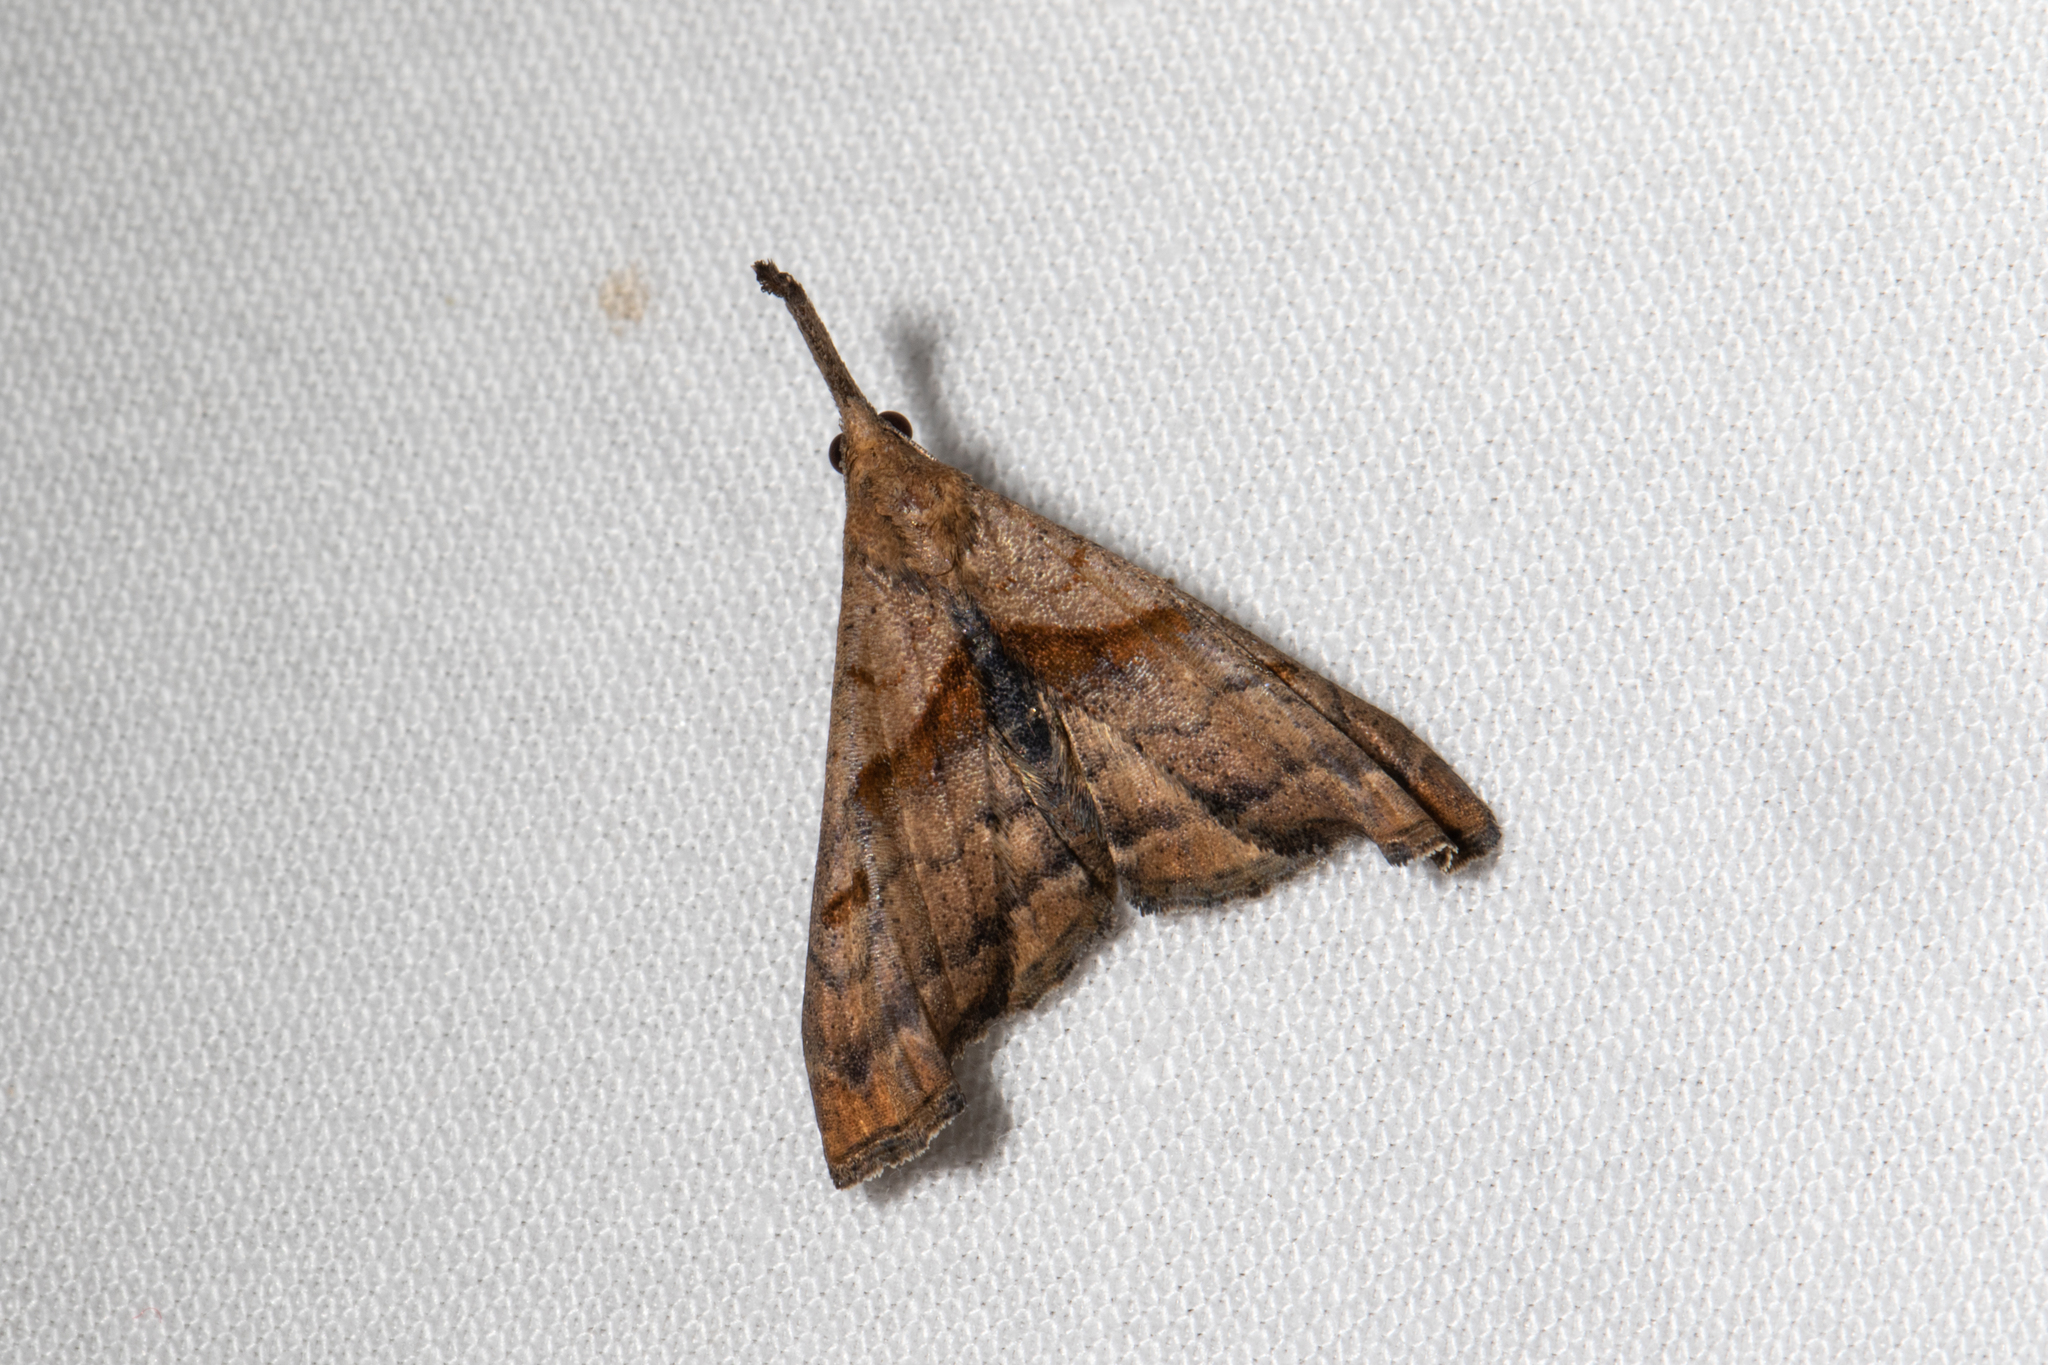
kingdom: Animalia
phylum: Arthropoda
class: Insecta
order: Lepidoptera
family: Erebidae
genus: Palthis
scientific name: Palthis angulalis
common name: Dark-spotted palthis moth
